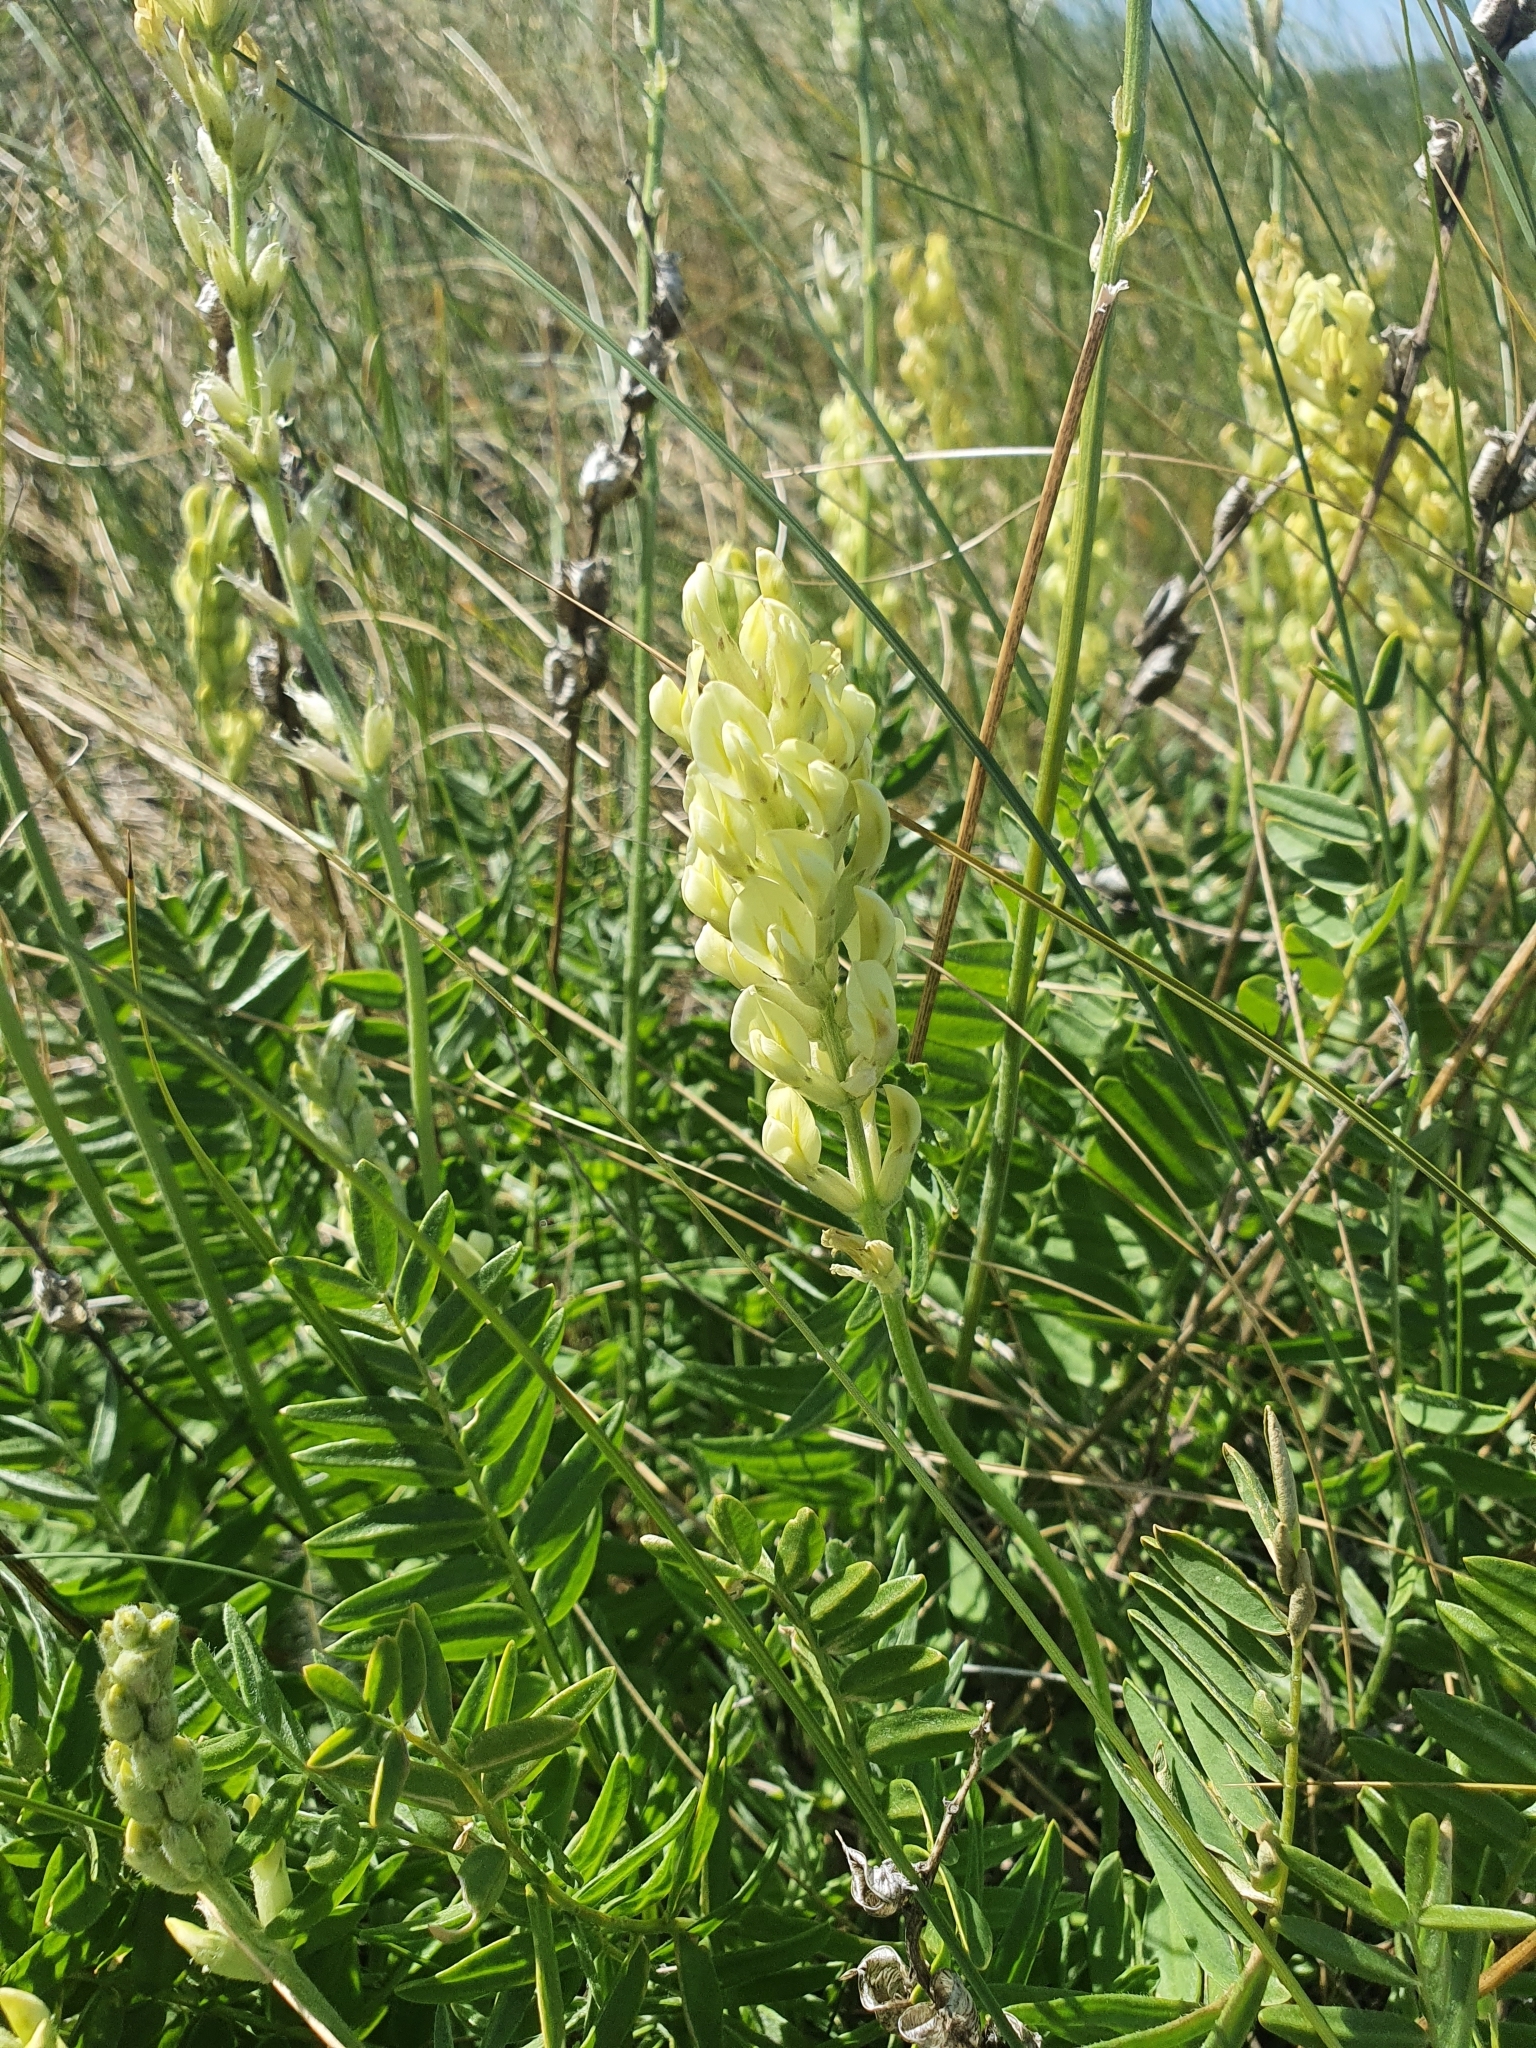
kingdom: Plantae
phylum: Tracheophyta
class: Magnoliopsida
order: Fabales
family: Fabaceae
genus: Oxytropis
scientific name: Oxytropis hippolyti
